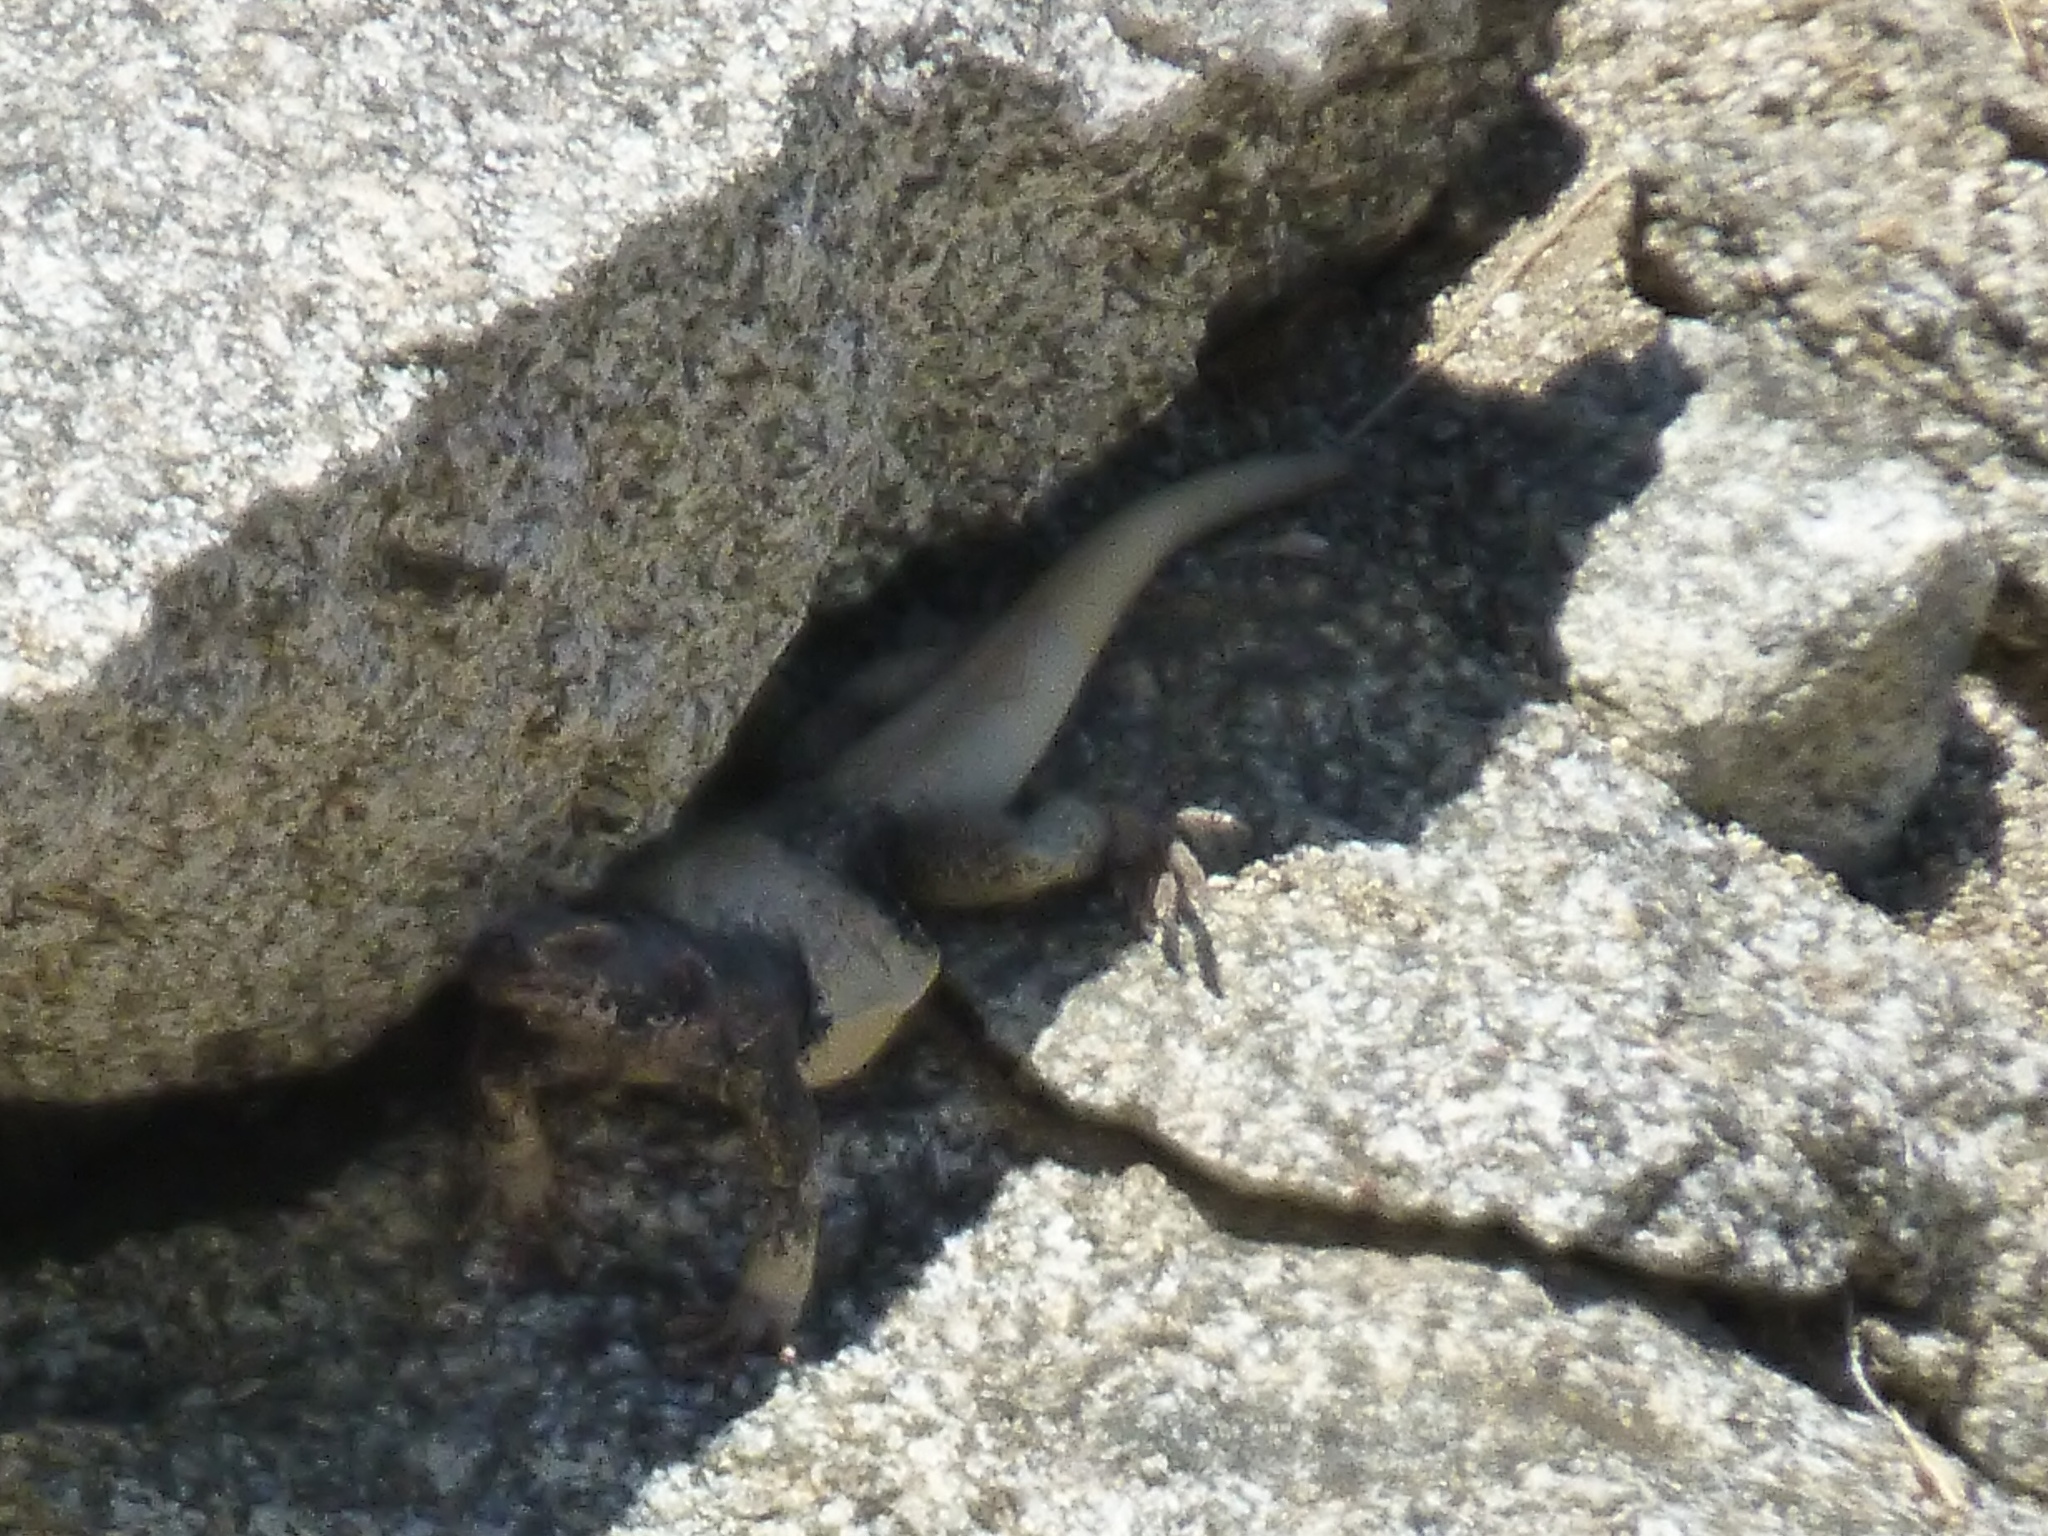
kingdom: Animalia
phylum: Chordata
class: Squamata
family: Iguanidae
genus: Sauromalus
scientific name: Sauromalus ater
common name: Northern chuckwalla
